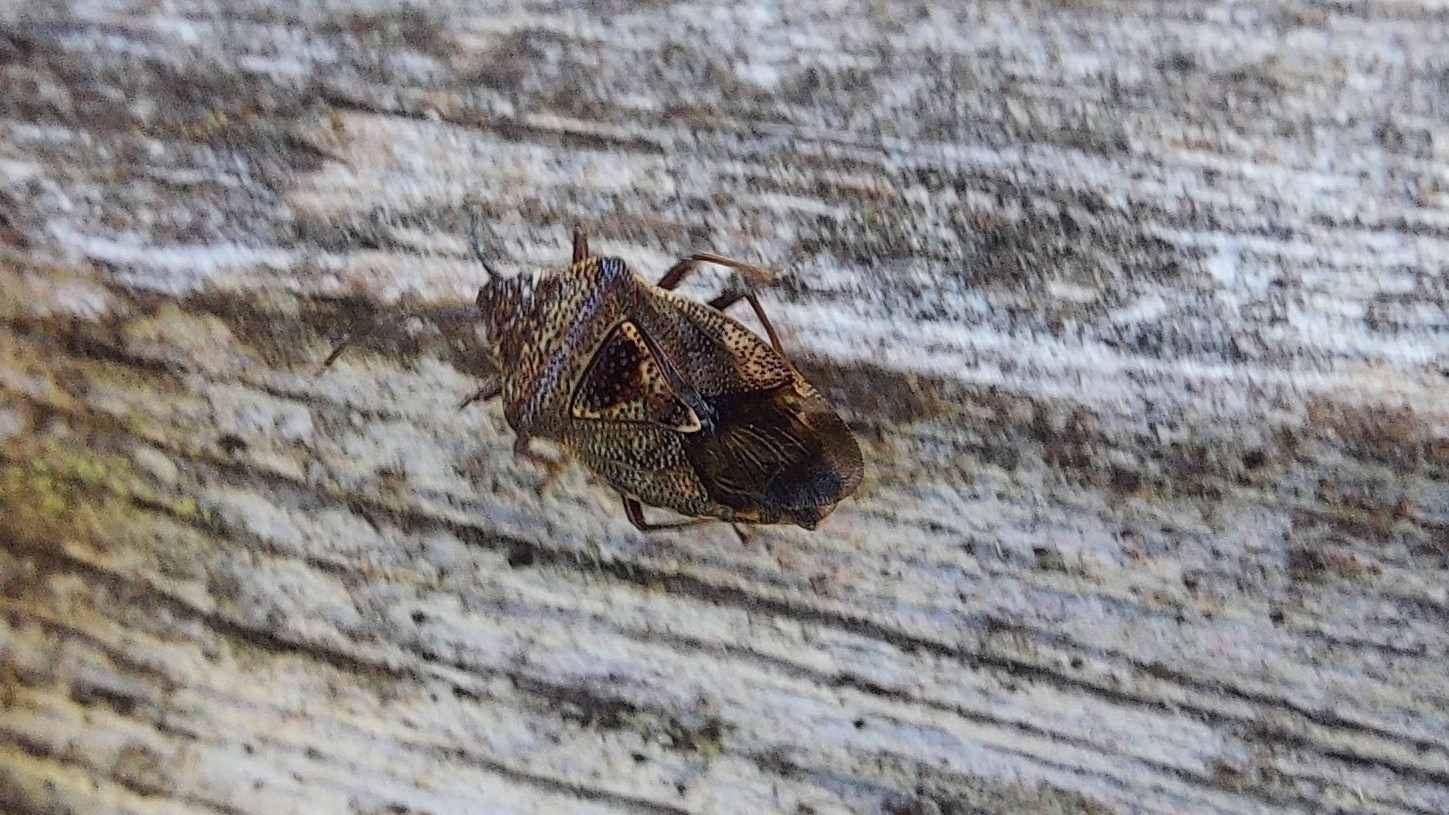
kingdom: Animalia
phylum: Arthropoda
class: Insecta
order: Hemiptera
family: Acanthosomatidae
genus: Elasmucha
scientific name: Elasmucha grisea
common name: Parent bug
